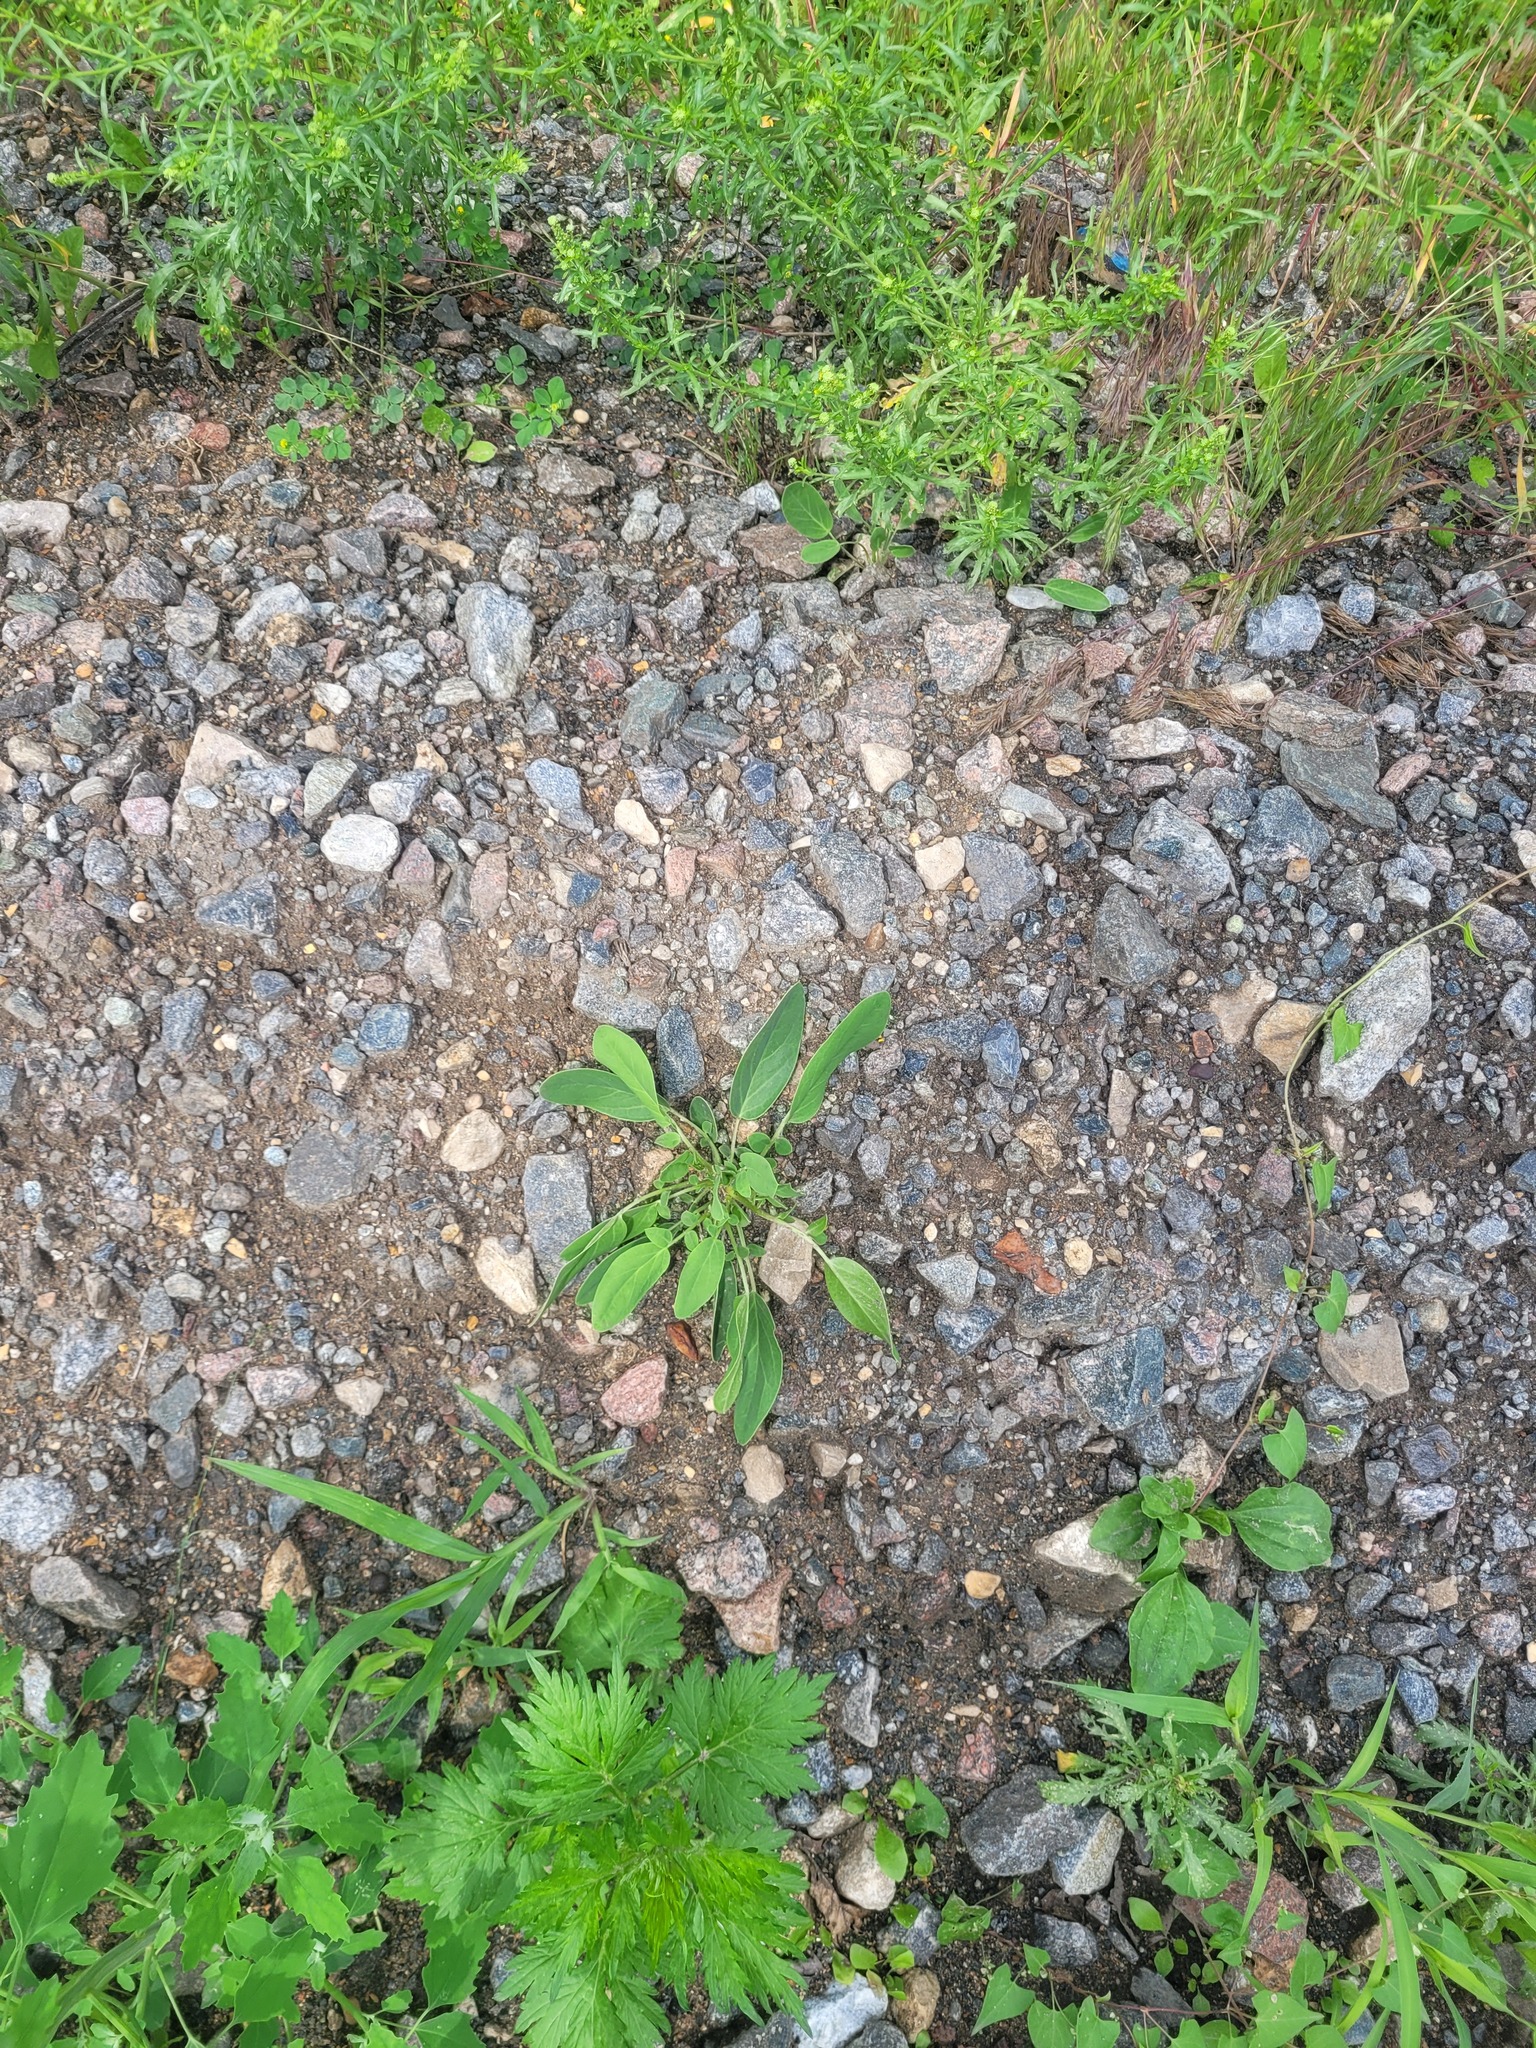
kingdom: Plantae
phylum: Tracheophyta
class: Magnoliopsida
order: Fabales
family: Fabaceae
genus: Anthyllis
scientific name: Anthyllis vulneraria
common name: Kidney vetch
